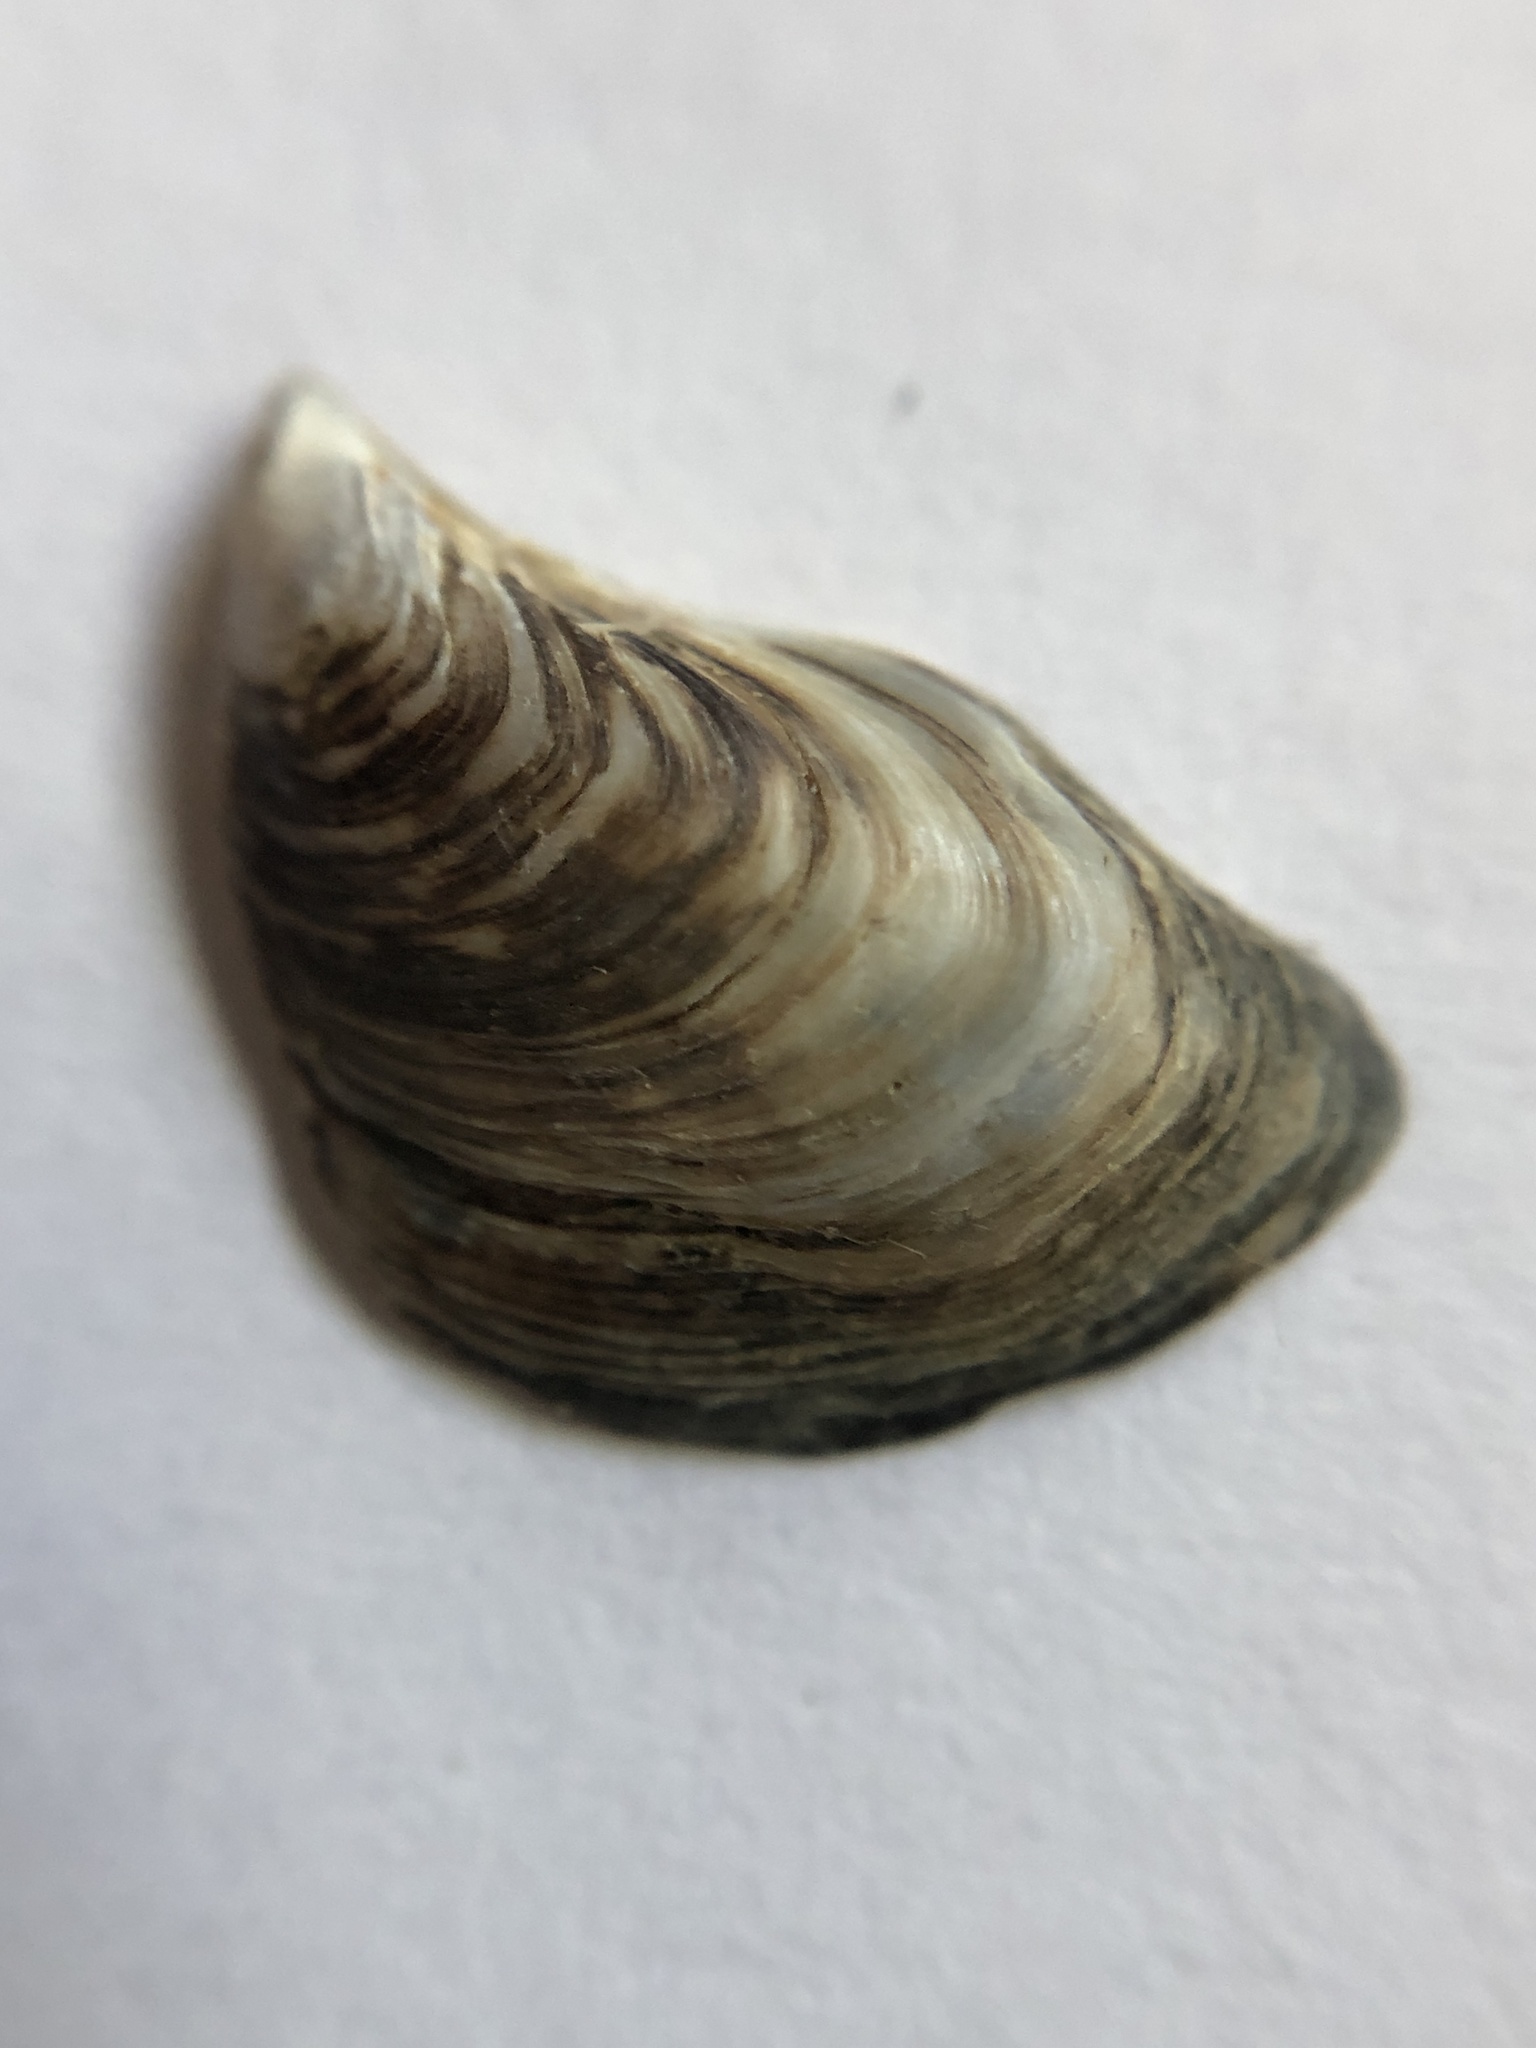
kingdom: Animalia
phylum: Mollusca
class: Bivalvia
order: Myida
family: Dreissenidae
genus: Dreissena
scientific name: Dreissena bugensis
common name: Quagga mussel
